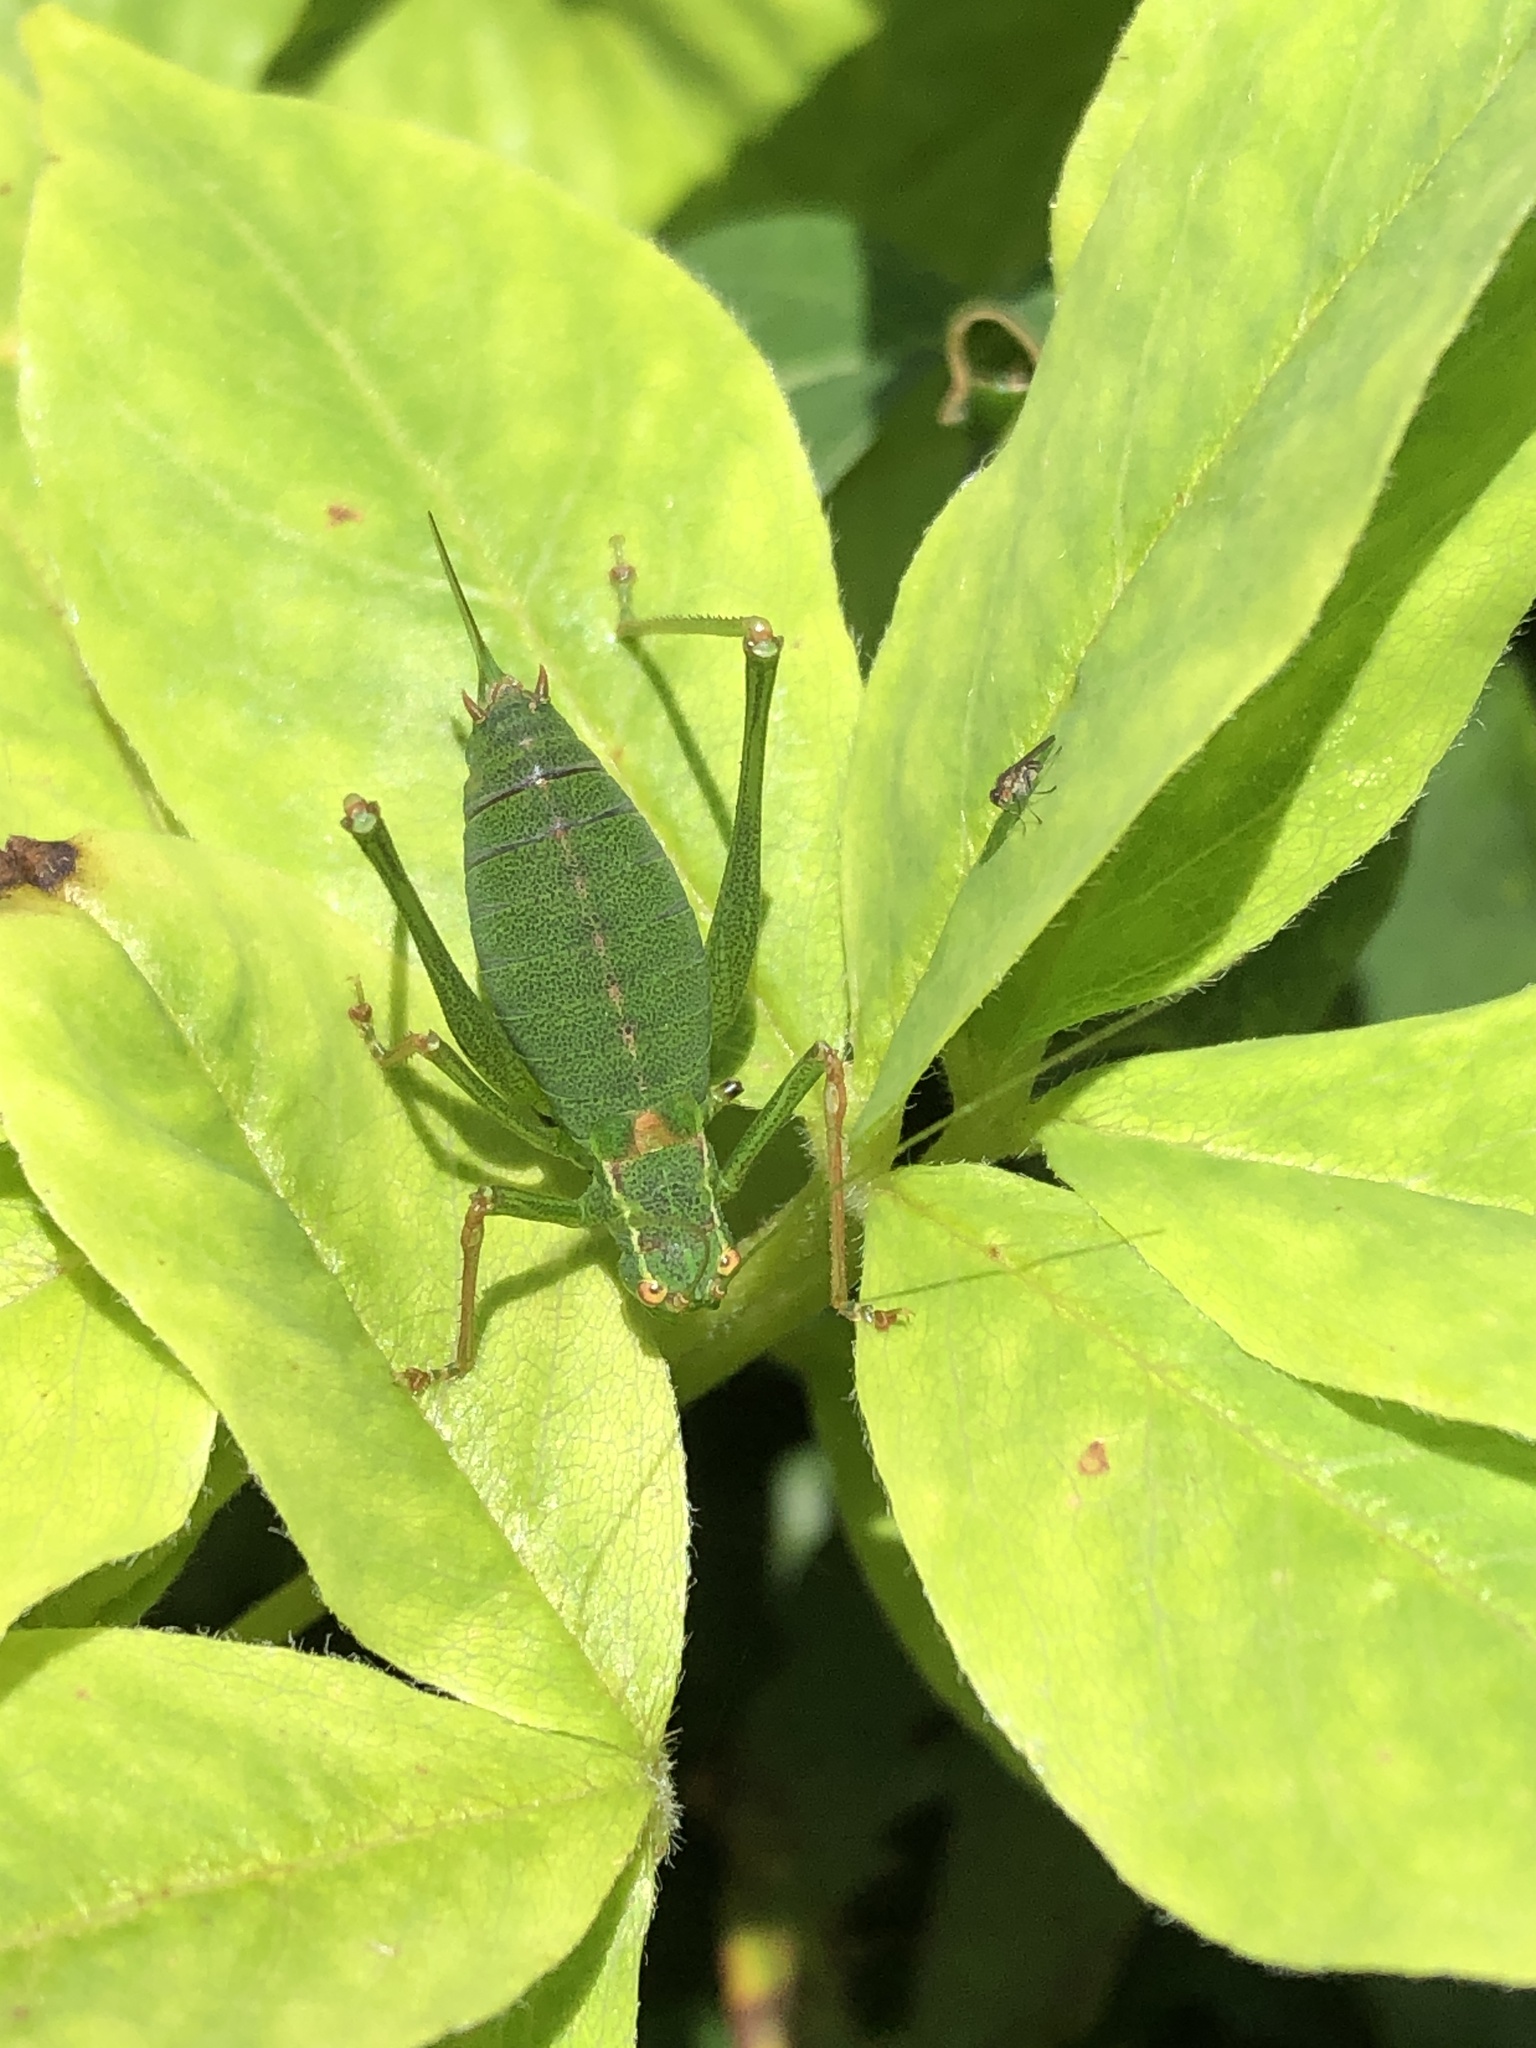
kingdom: Animalia
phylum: Arthropoda
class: Insecta
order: Orthoptera
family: Tettigoniidae
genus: Leptophyes
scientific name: Leptophyes punctatissima
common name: Speckled bush-cricket
